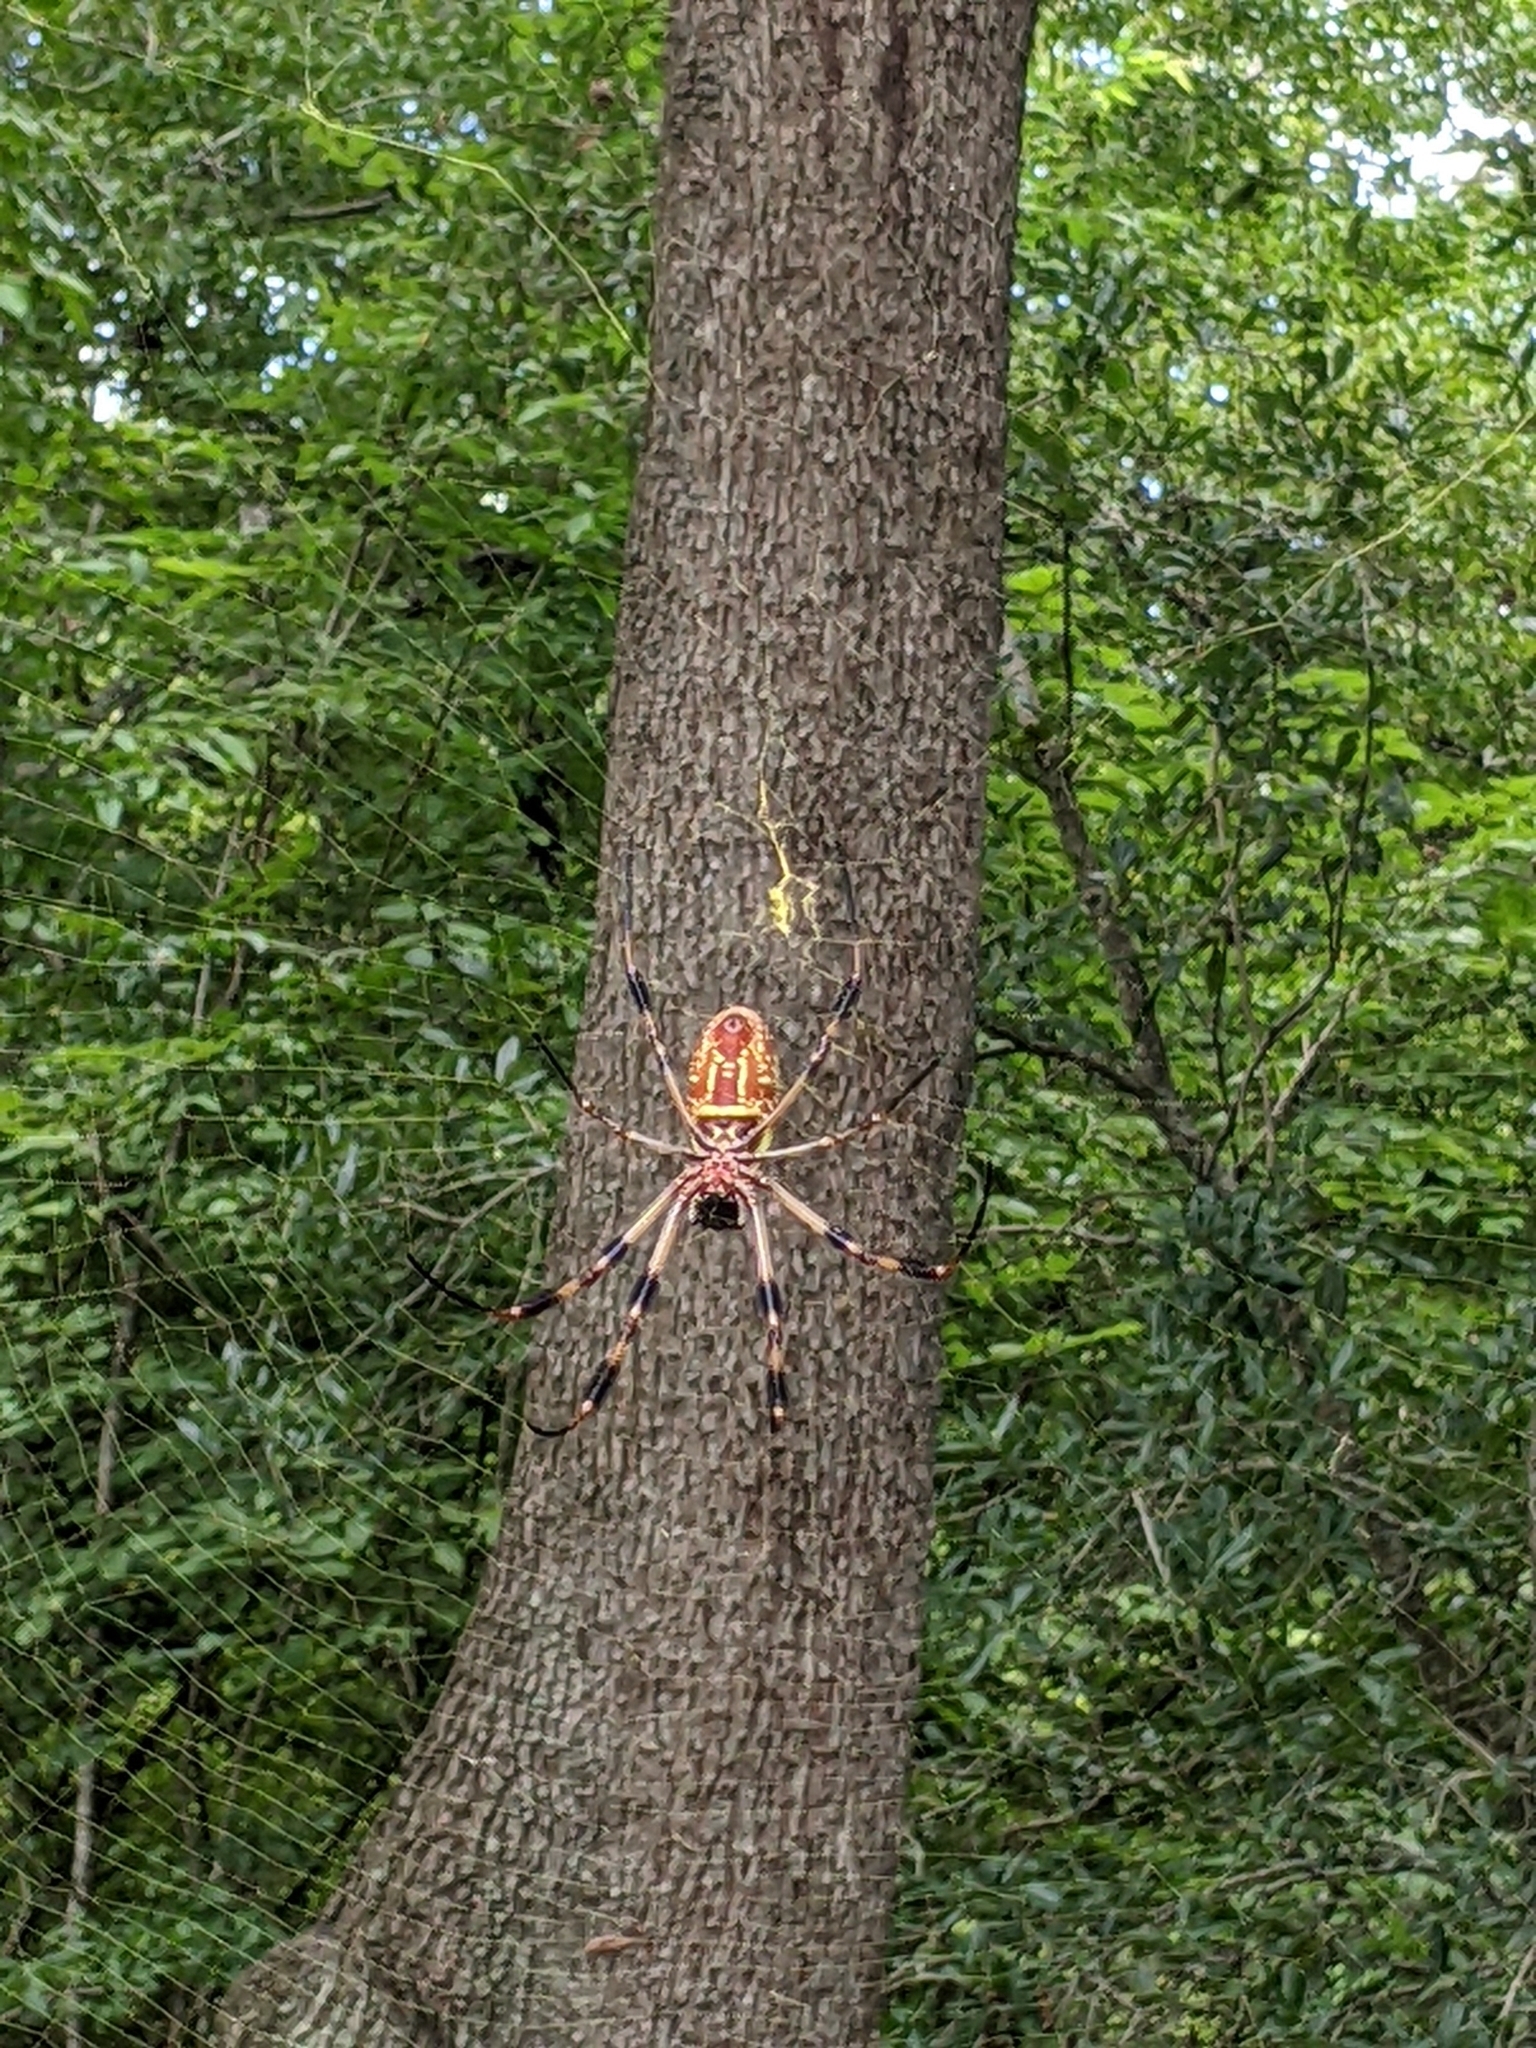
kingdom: Animalia
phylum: Arthropoda
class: Arachnida
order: Araneae
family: Araneidae
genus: Trichonephila
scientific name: Trichonephila clavipes
